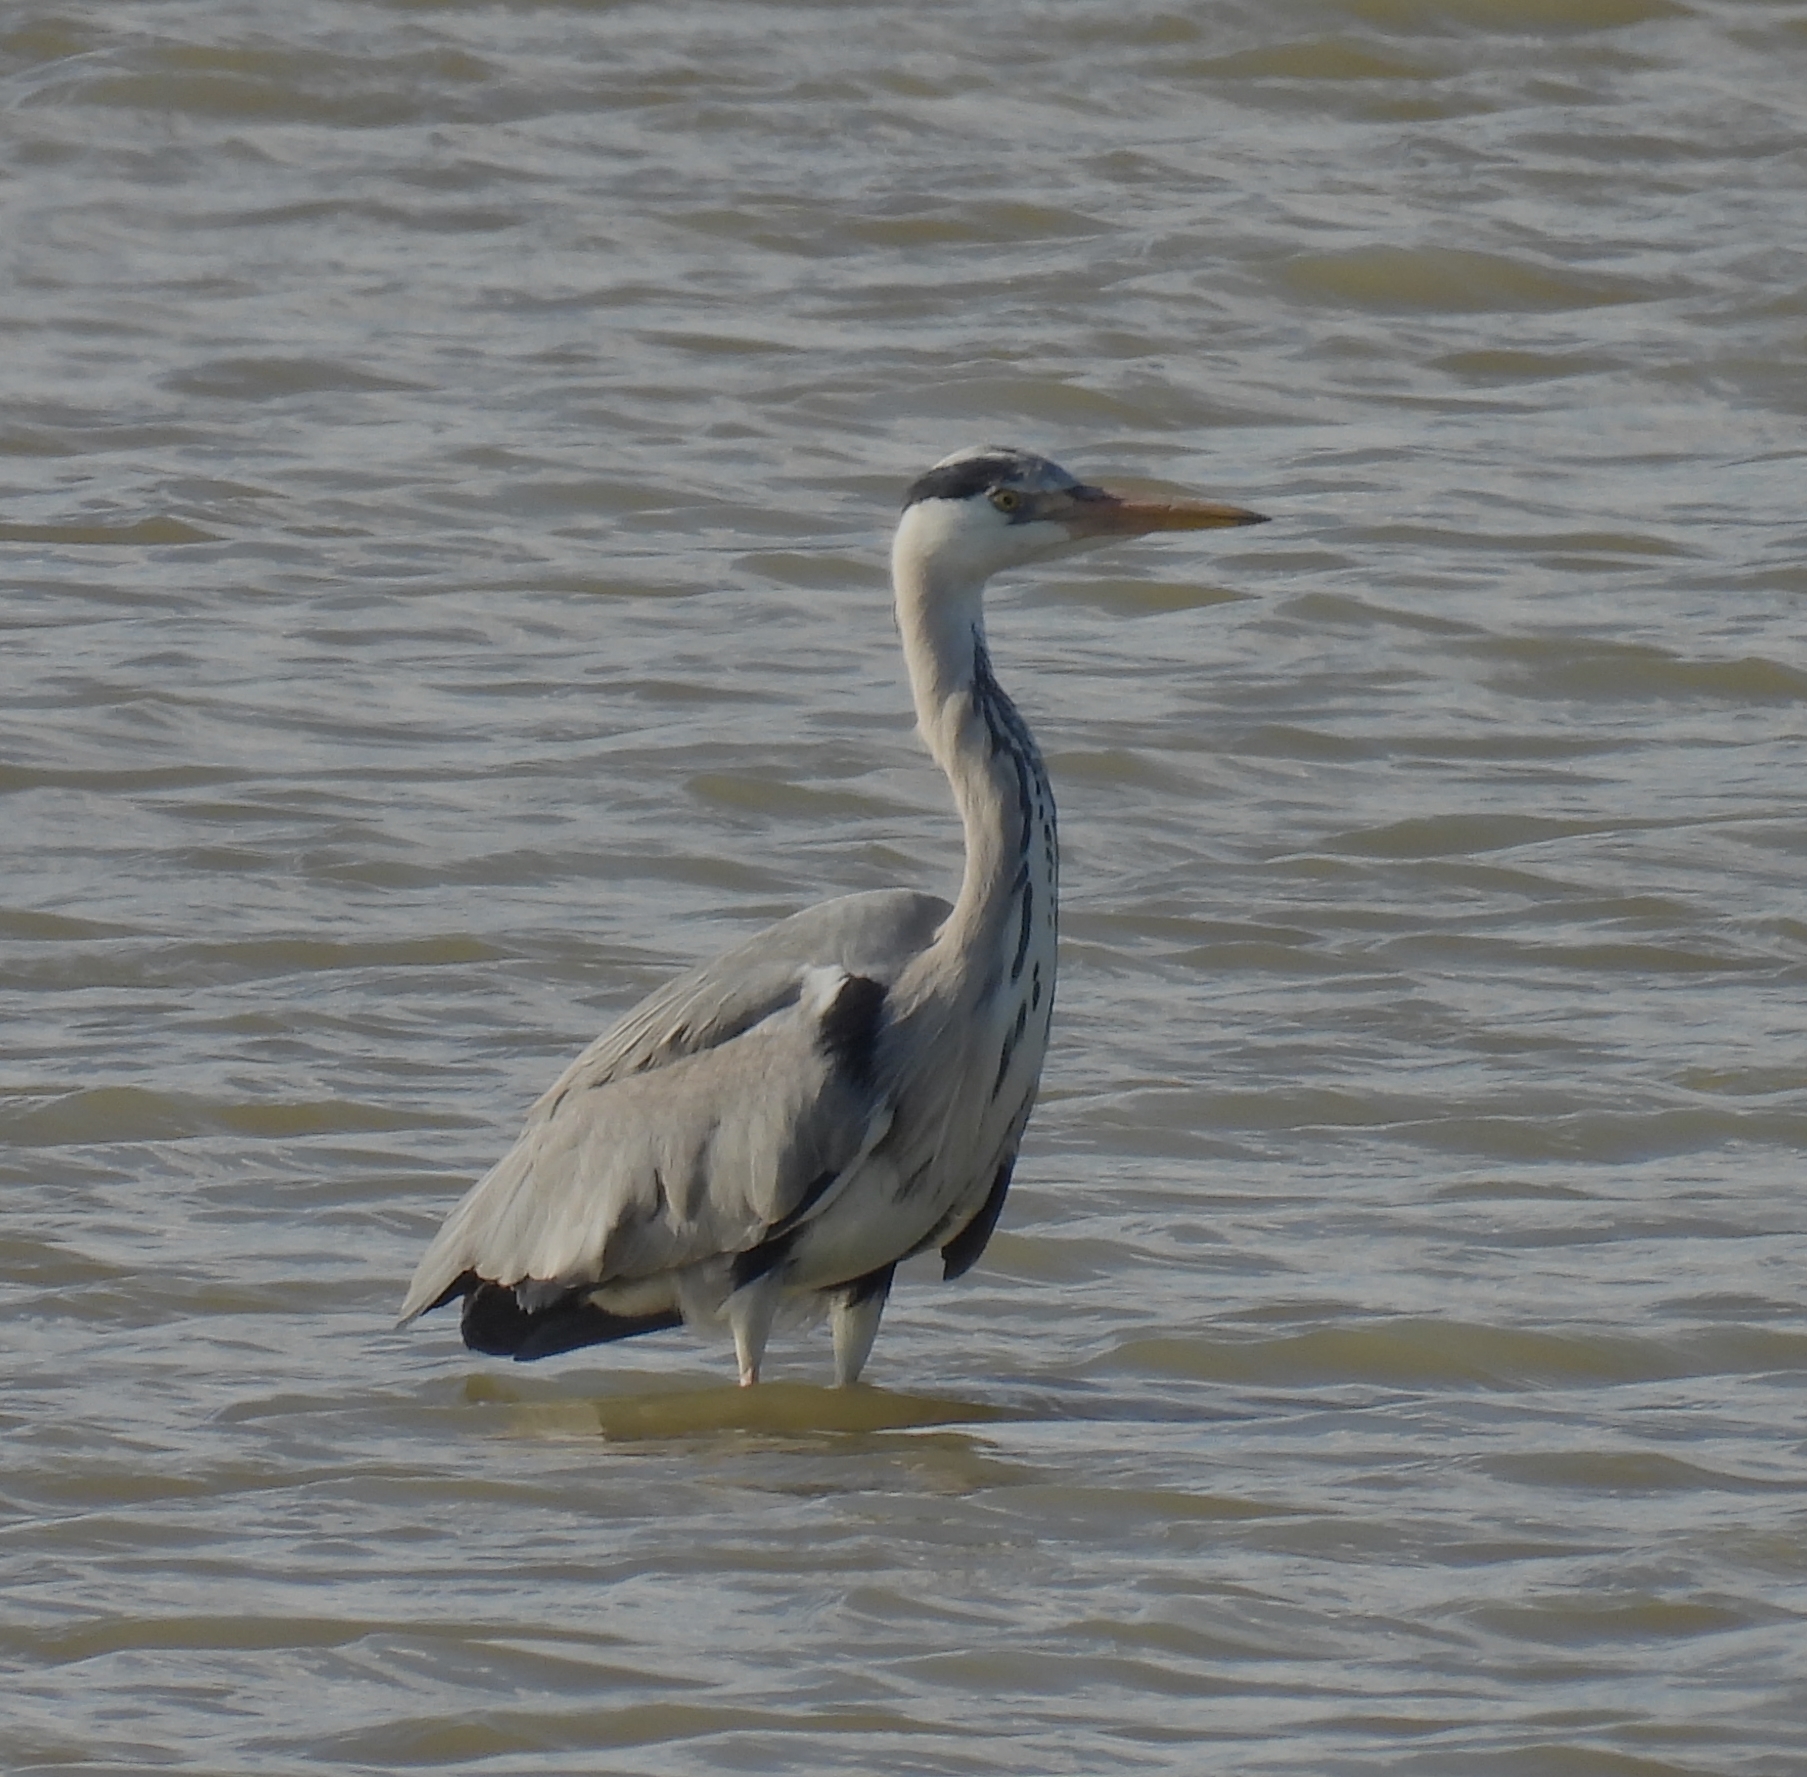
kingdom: Animalia
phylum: Chordata
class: Aves
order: Pelecaniformes
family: Ardeidae
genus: Ardea
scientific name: Ardea cinerea
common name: Grey heron
